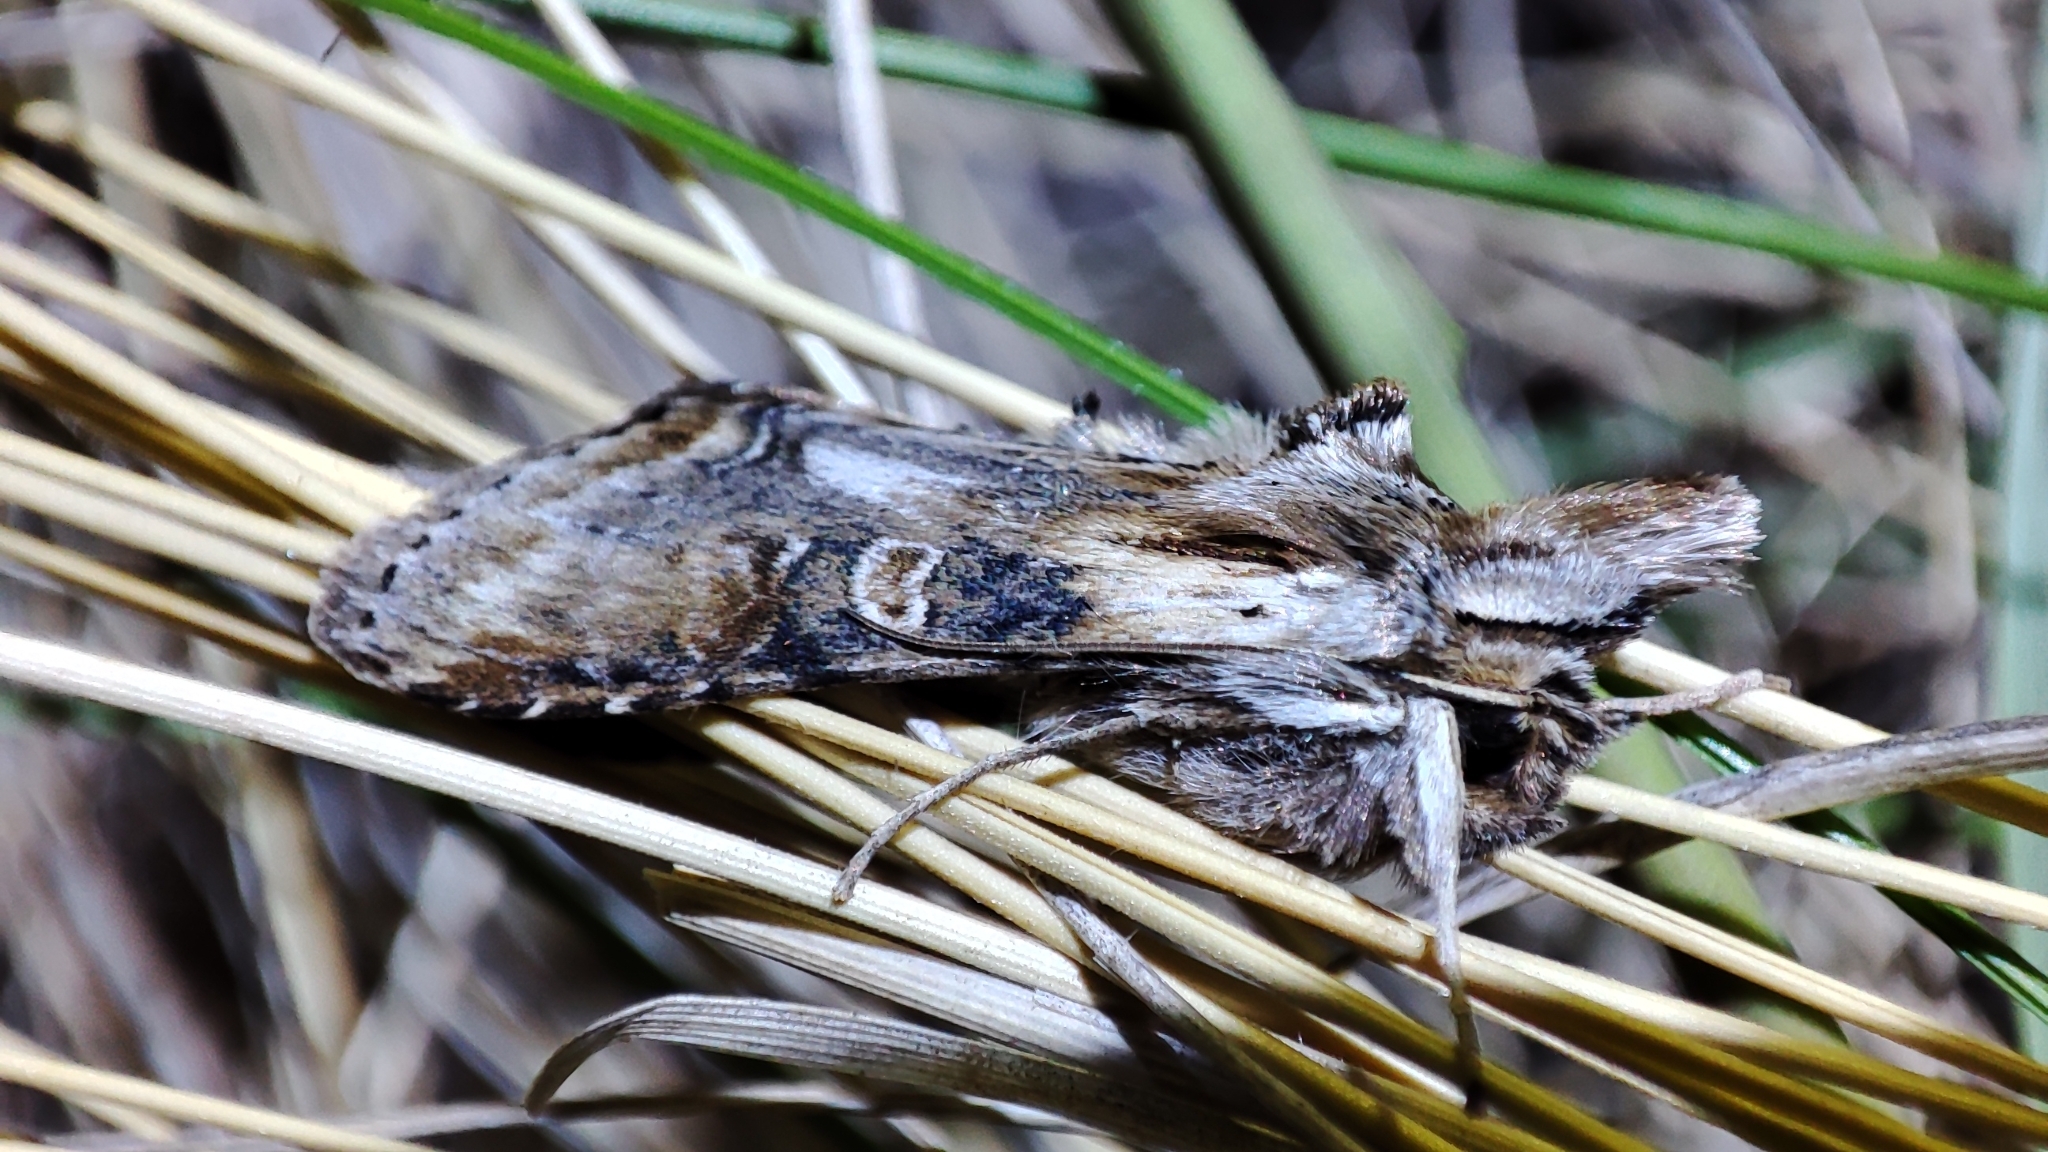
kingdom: Animalia
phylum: Arthropoda
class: Insecta
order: Lepidoptera
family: Noctuidae
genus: Cucullia
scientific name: Cucullia propinqua
